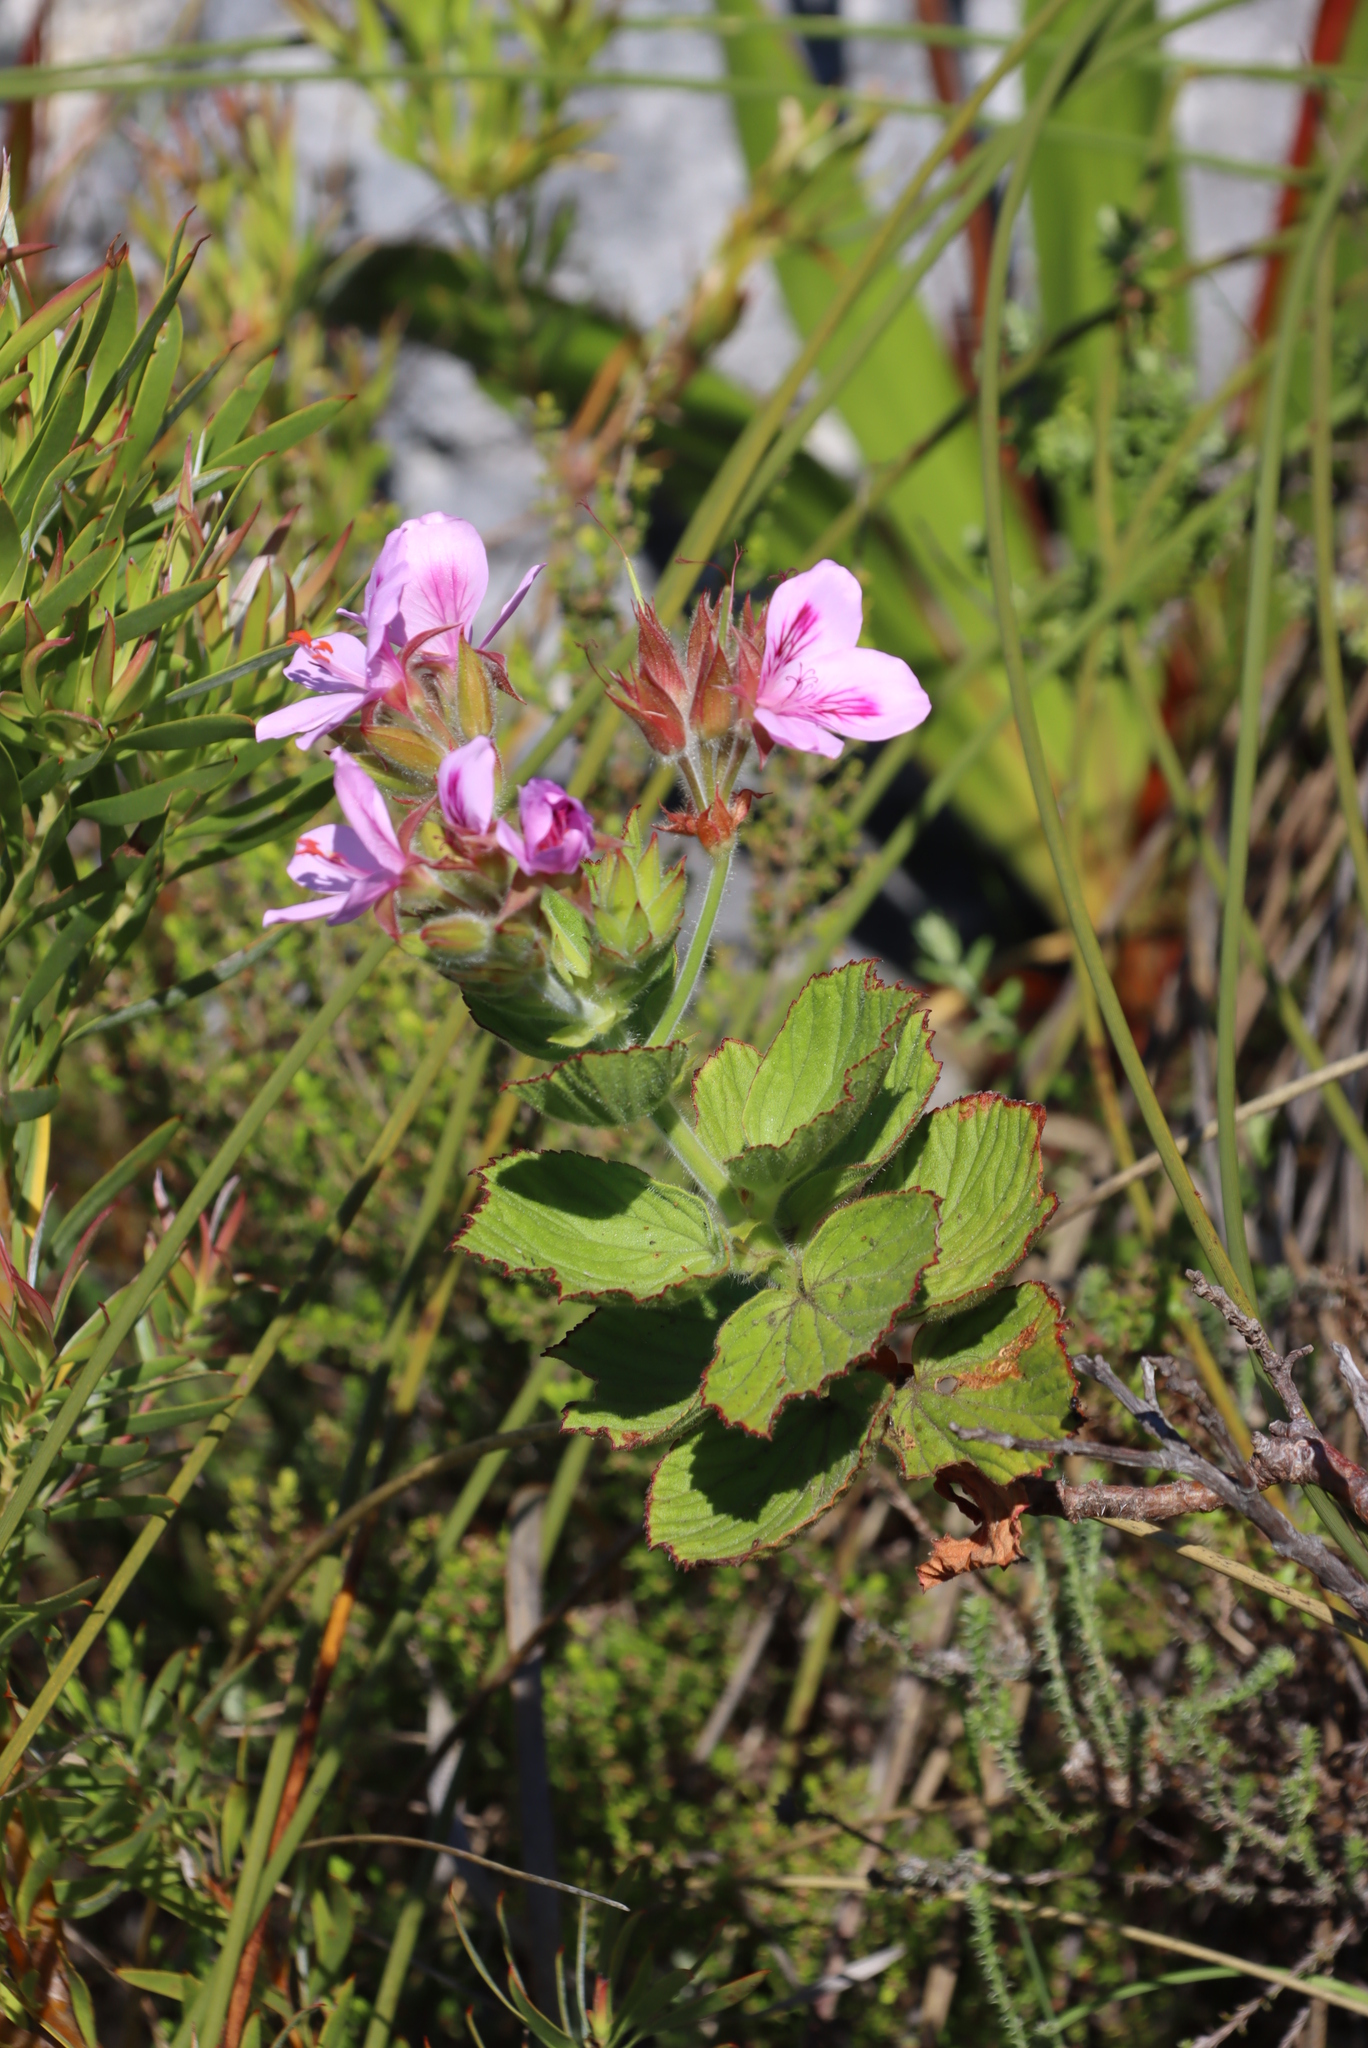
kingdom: Plantae
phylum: Tracheophyta
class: Magnoliopsida
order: Geraniales
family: Geraniaceae
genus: Pelargonium
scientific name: Pelargonium cucullatum
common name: Tree pelargonium
